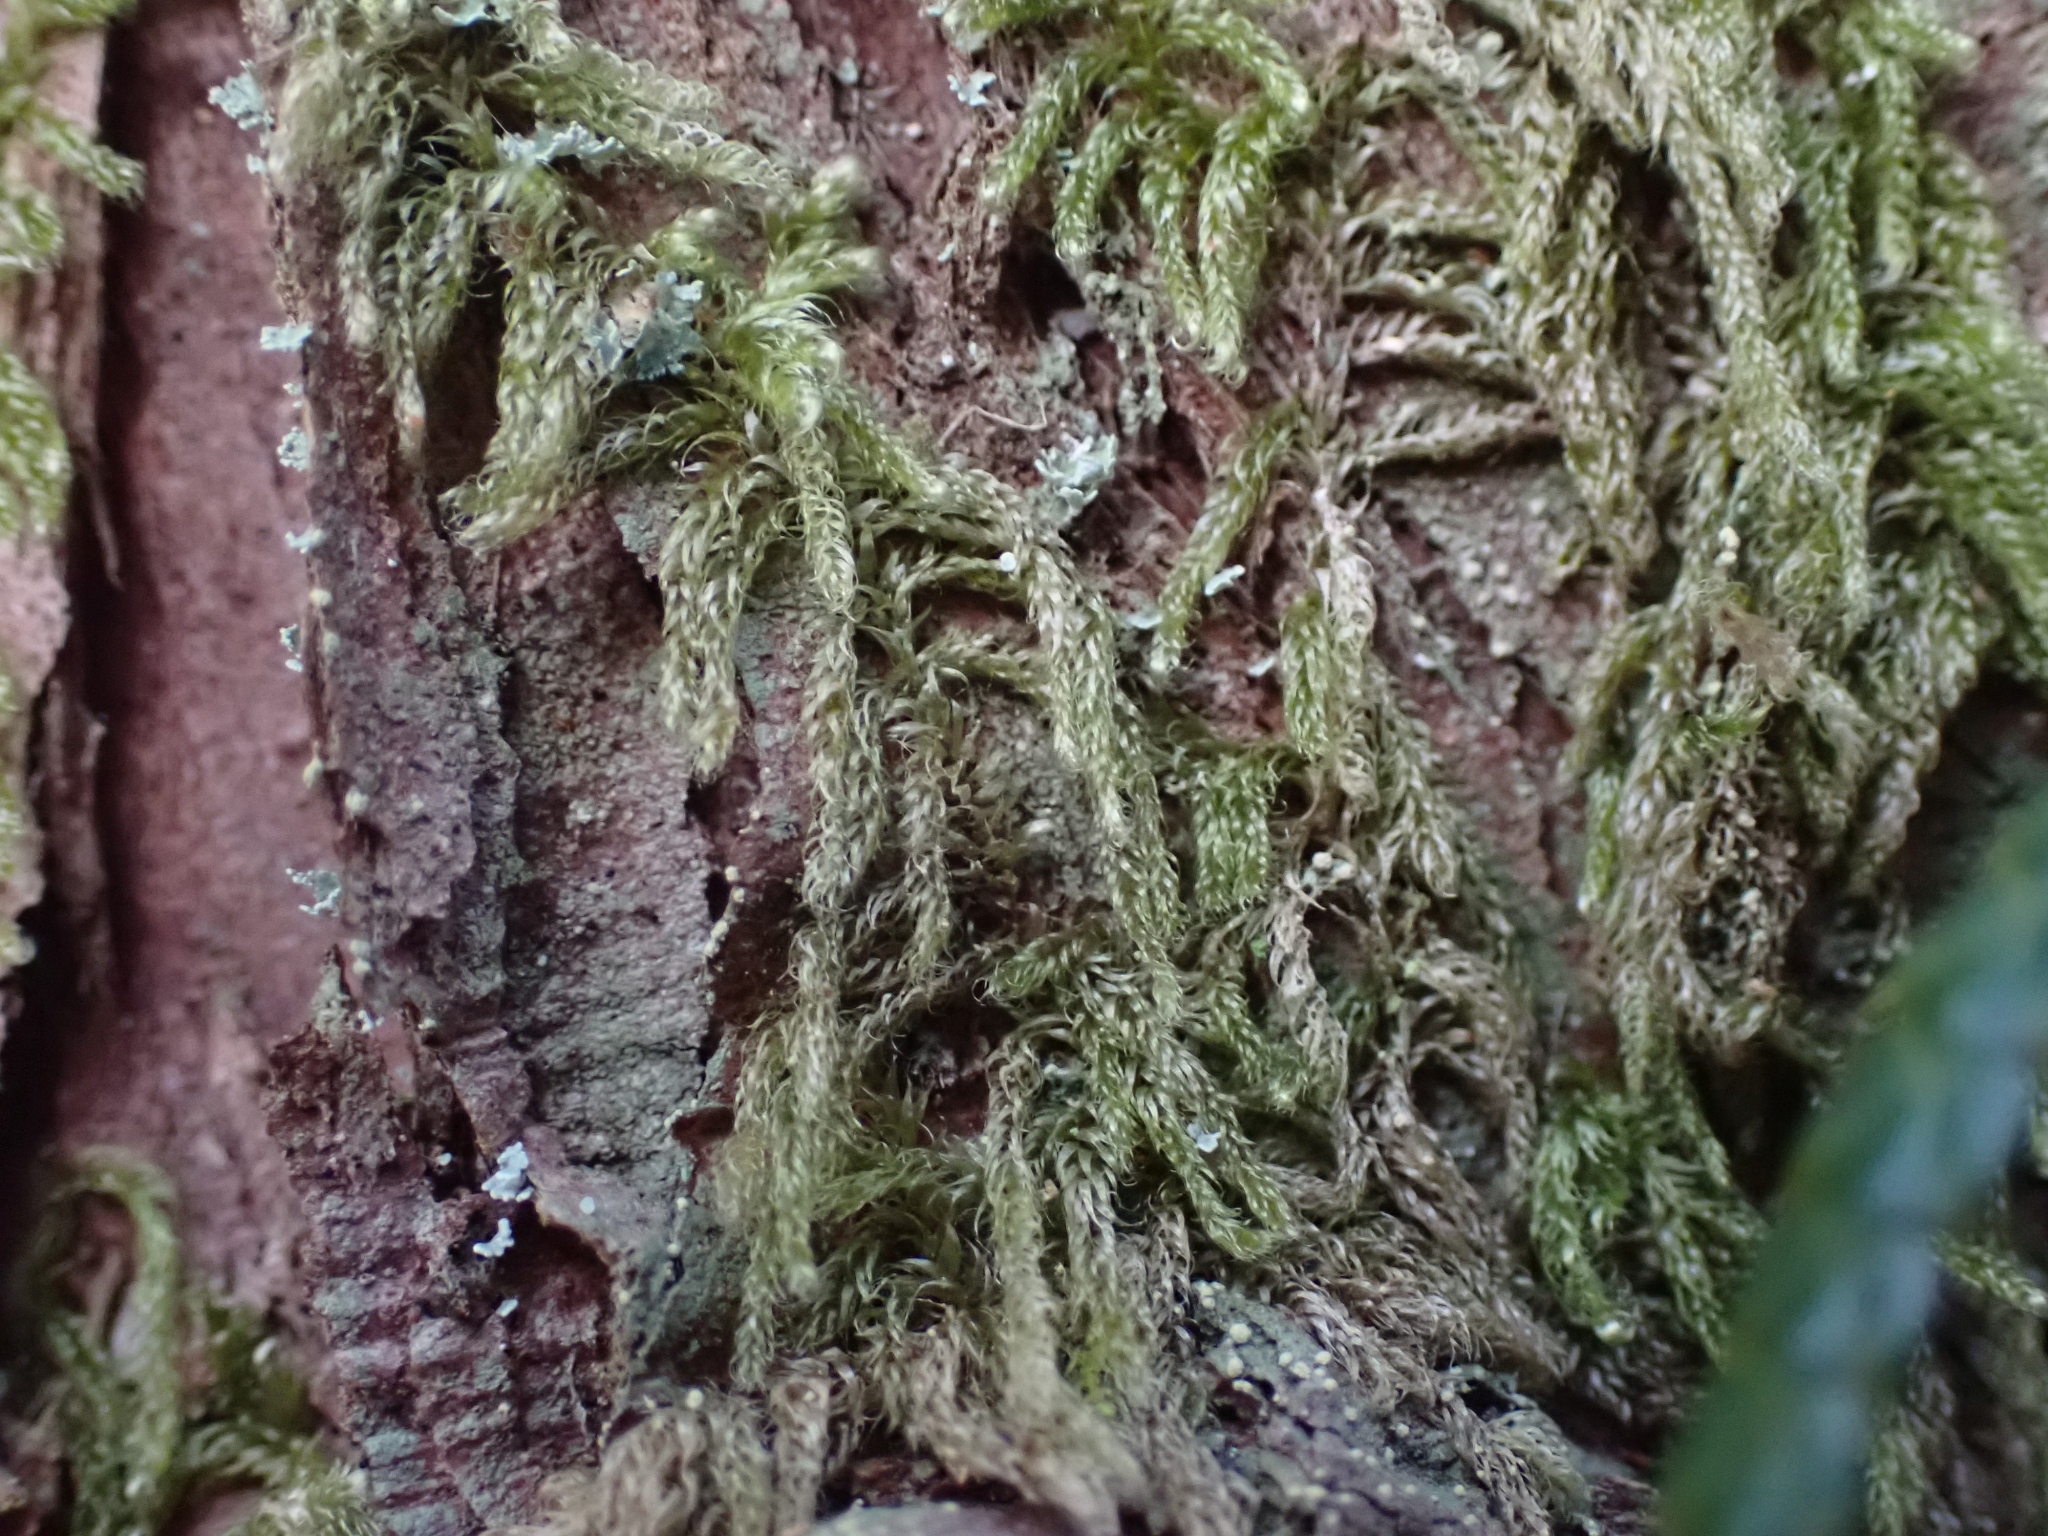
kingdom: Plantae
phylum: Bryophyta
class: Bryopsida
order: Hypnales
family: Pylaisiadelphaceae
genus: Trochophyllohypnum
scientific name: Trochophyllohypnum circinale
